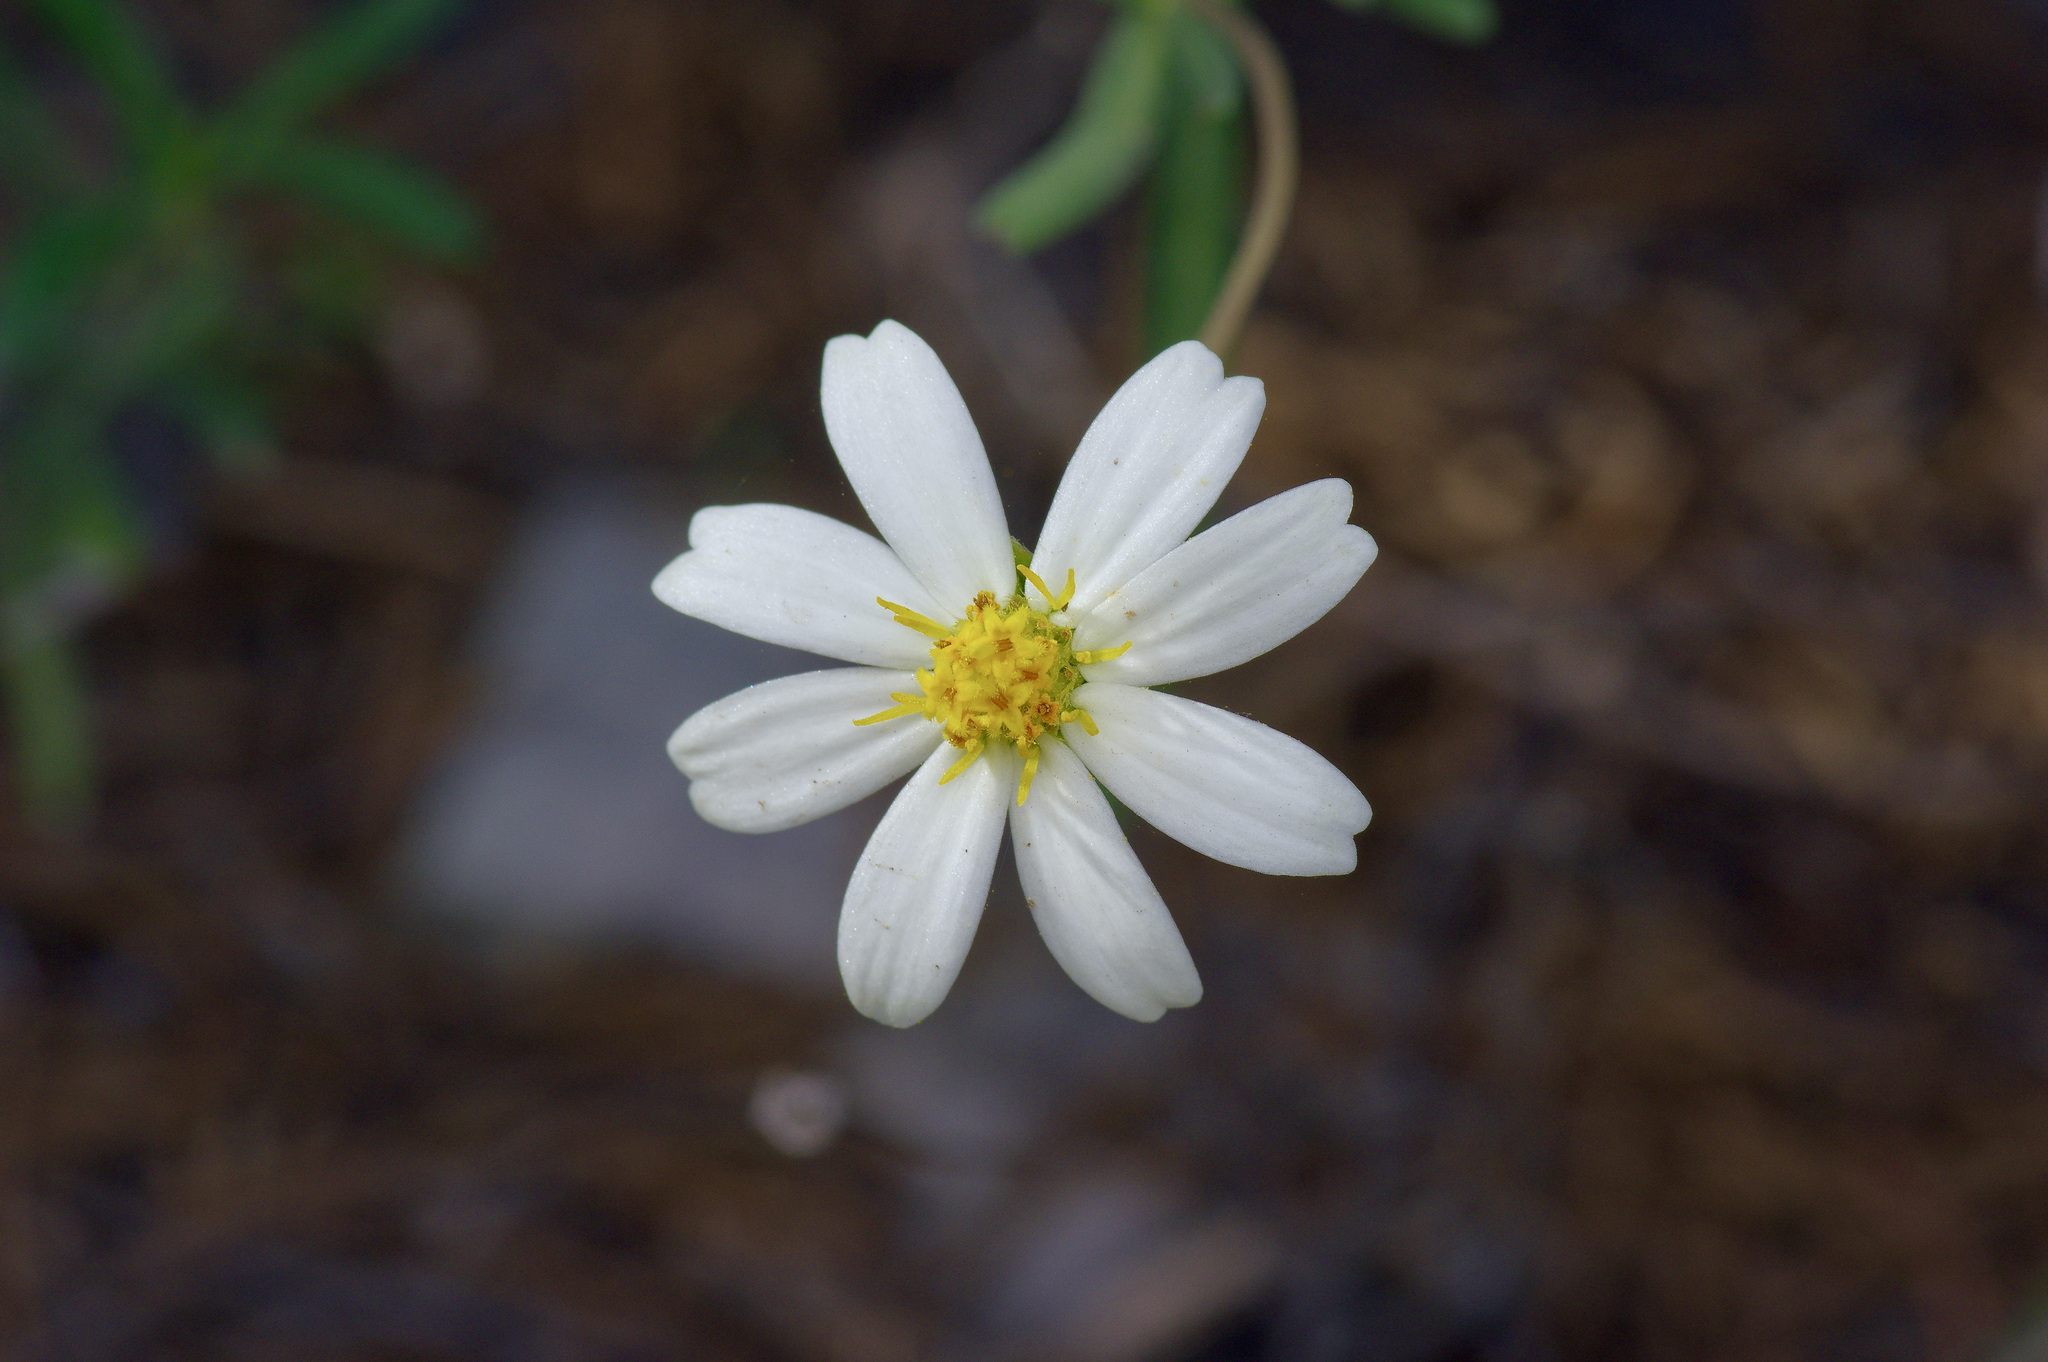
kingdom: Plantae
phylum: Tracheophyta
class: Magnoliopsida
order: Asterales
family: Asteraceae
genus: Melampodium
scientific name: Melampodium leucanthum
